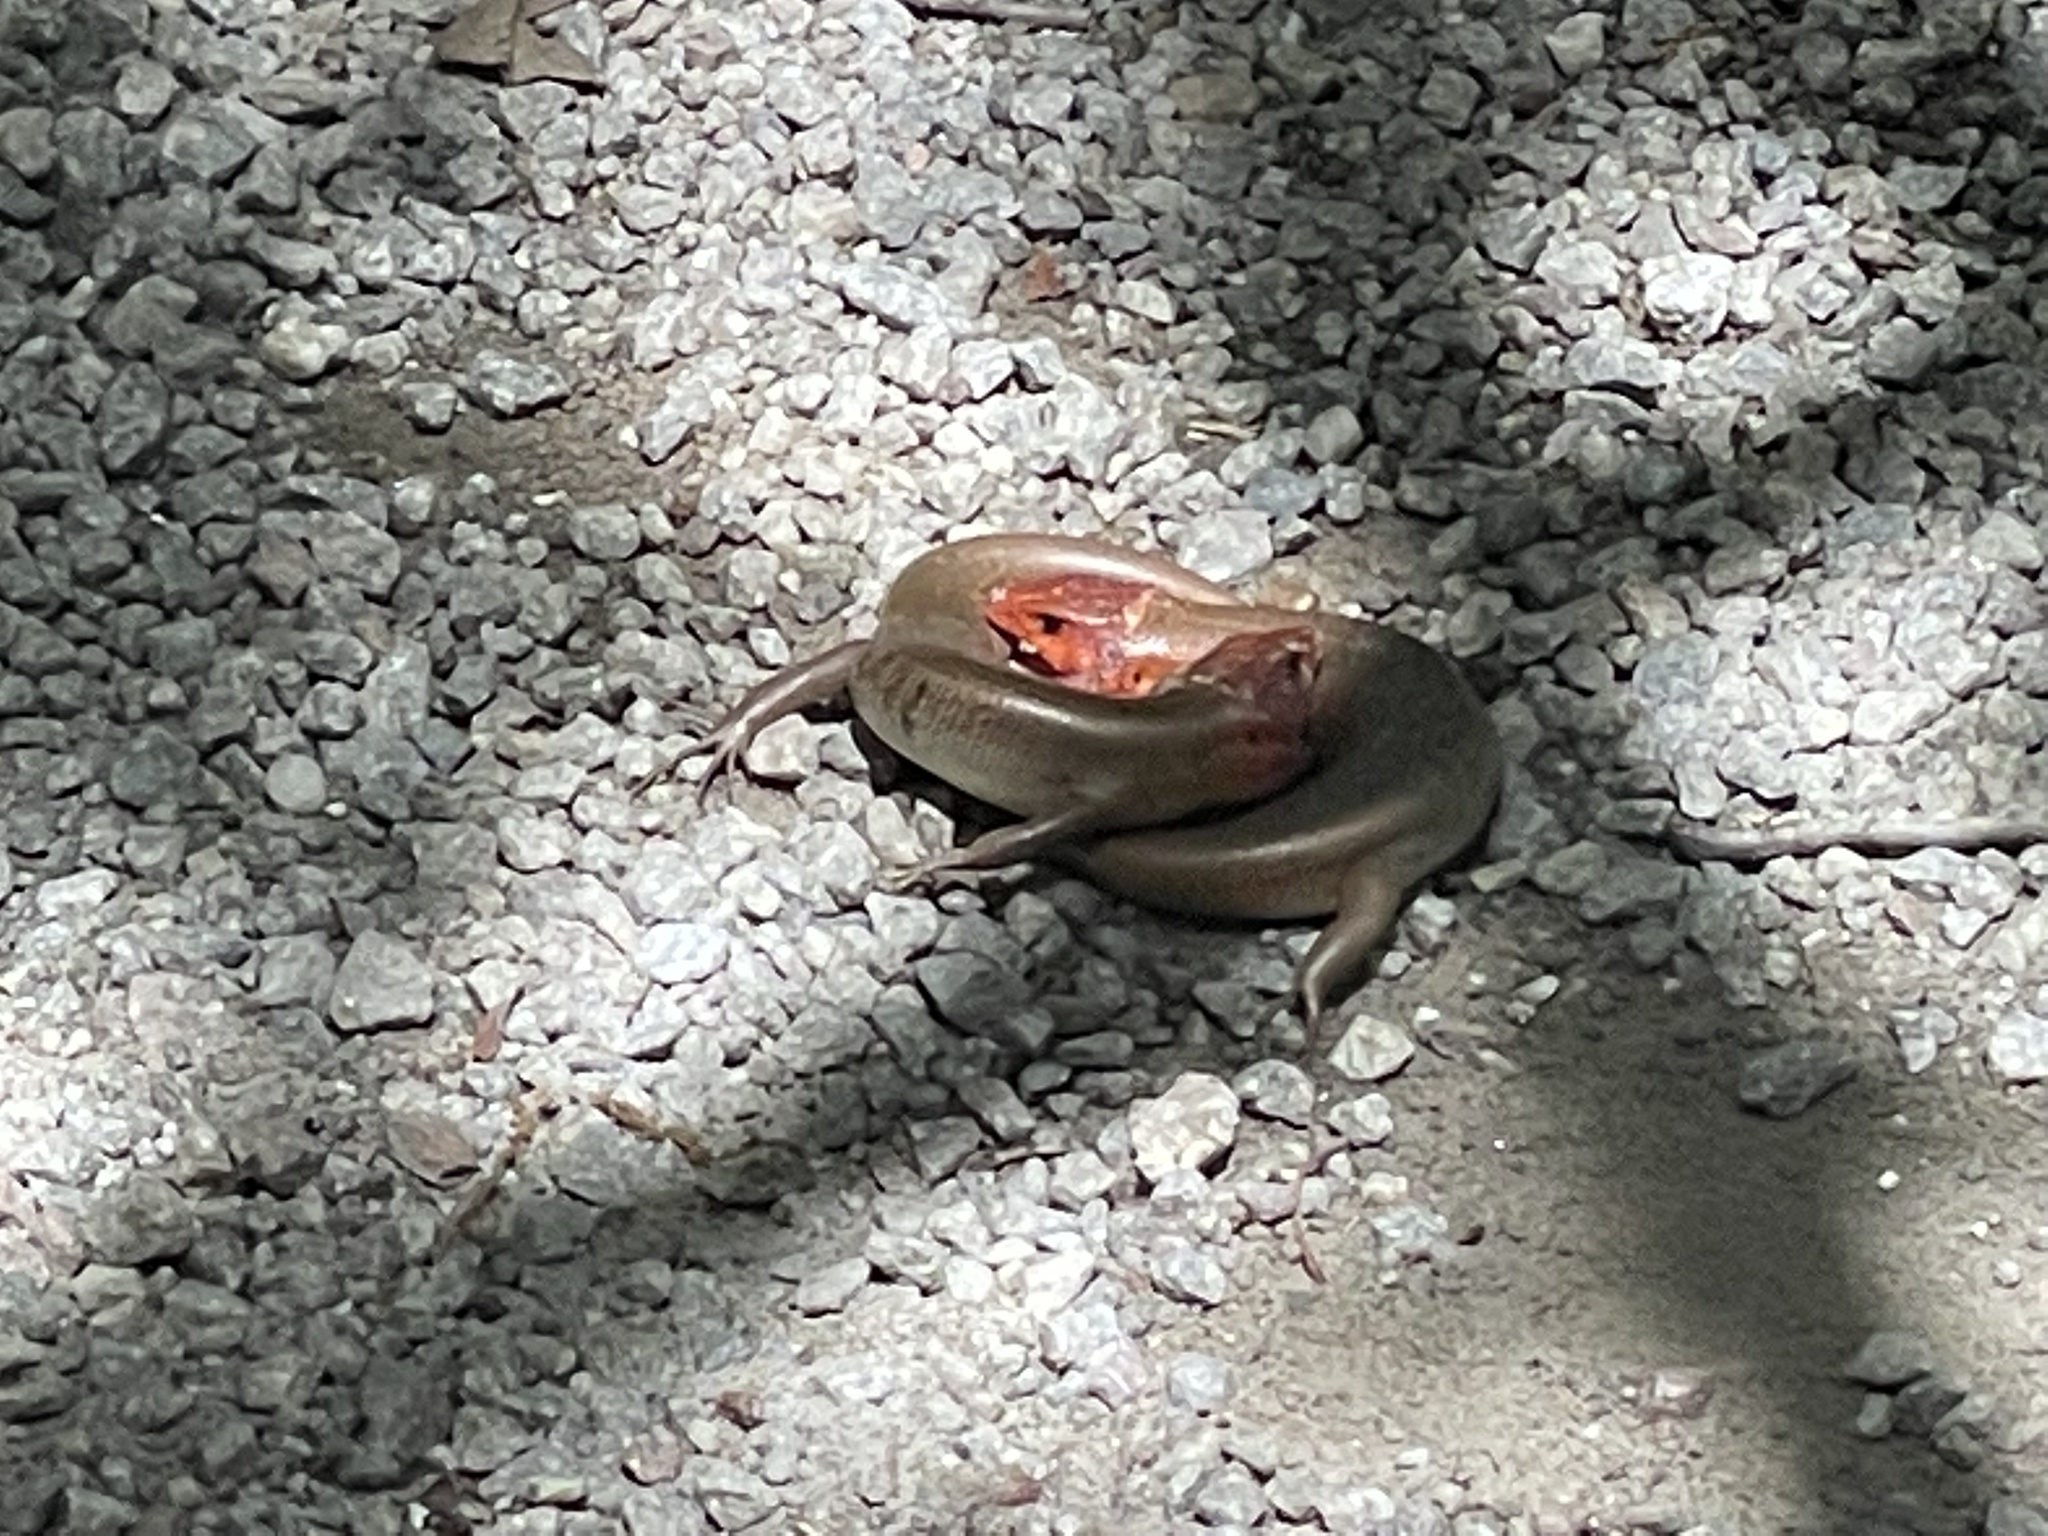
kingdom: Animalia
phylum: Chordata
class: Squamata
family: Scincidae
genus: Plestiodon
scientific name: Plestiodon laticeps
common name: Broadhead skink
